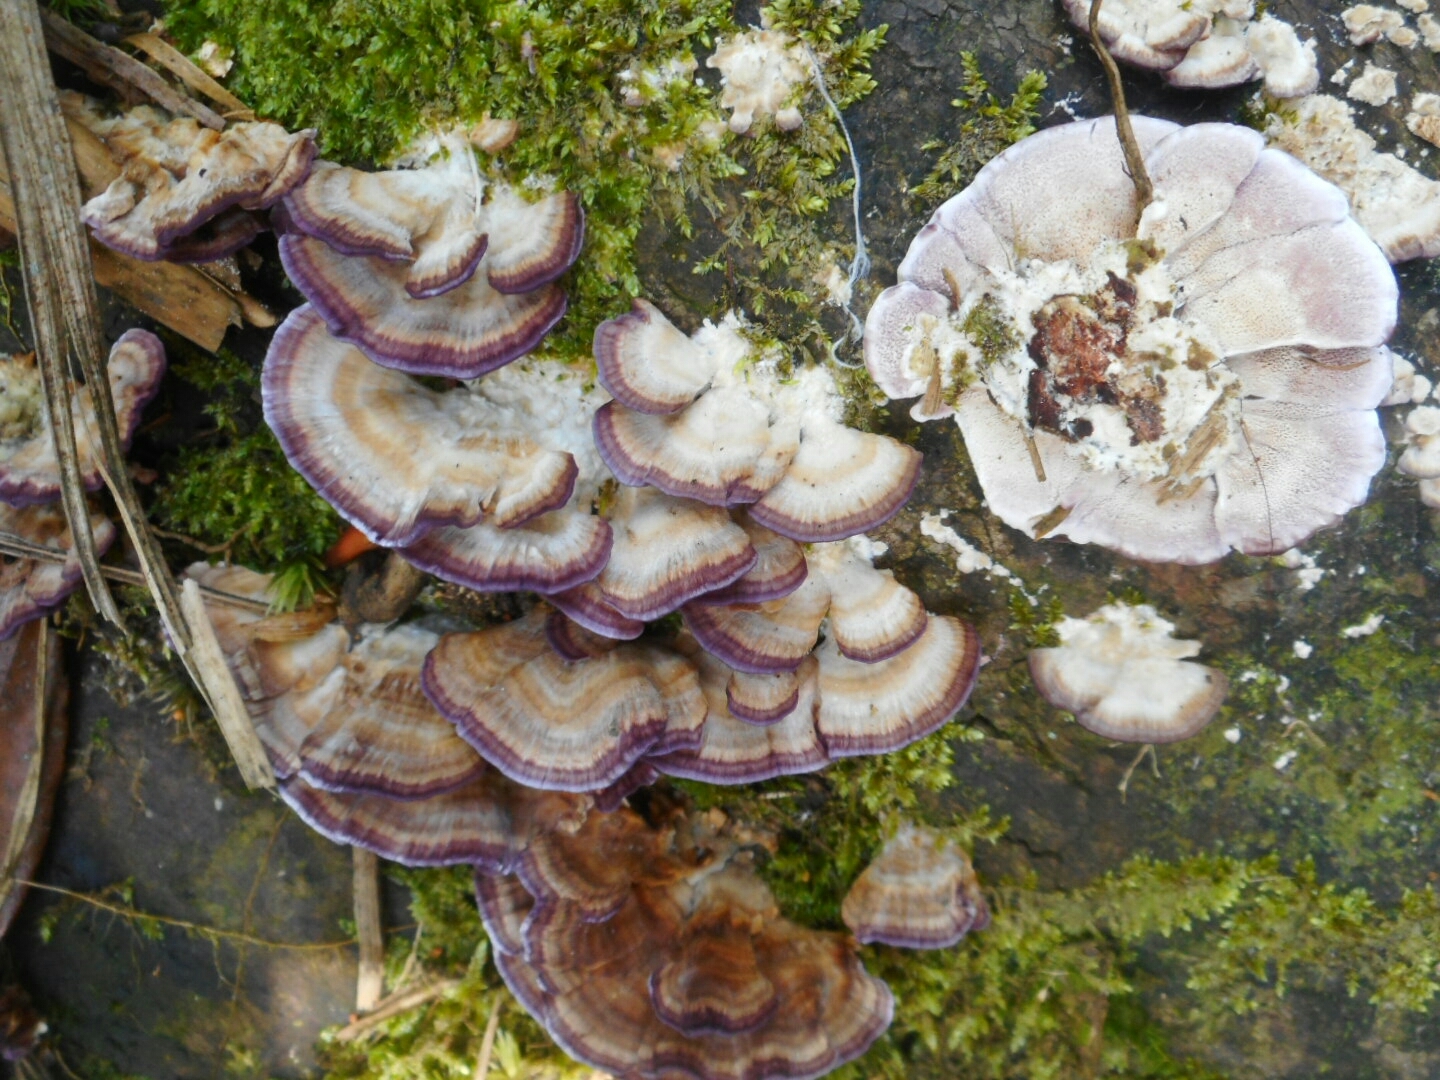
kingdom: Fungi
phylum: Basidiomycota
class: Agaricomycetes
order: Hymenochaetales
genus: Trichaptum
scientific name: Trichaptum biforme
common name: Violet-toothed polypore
